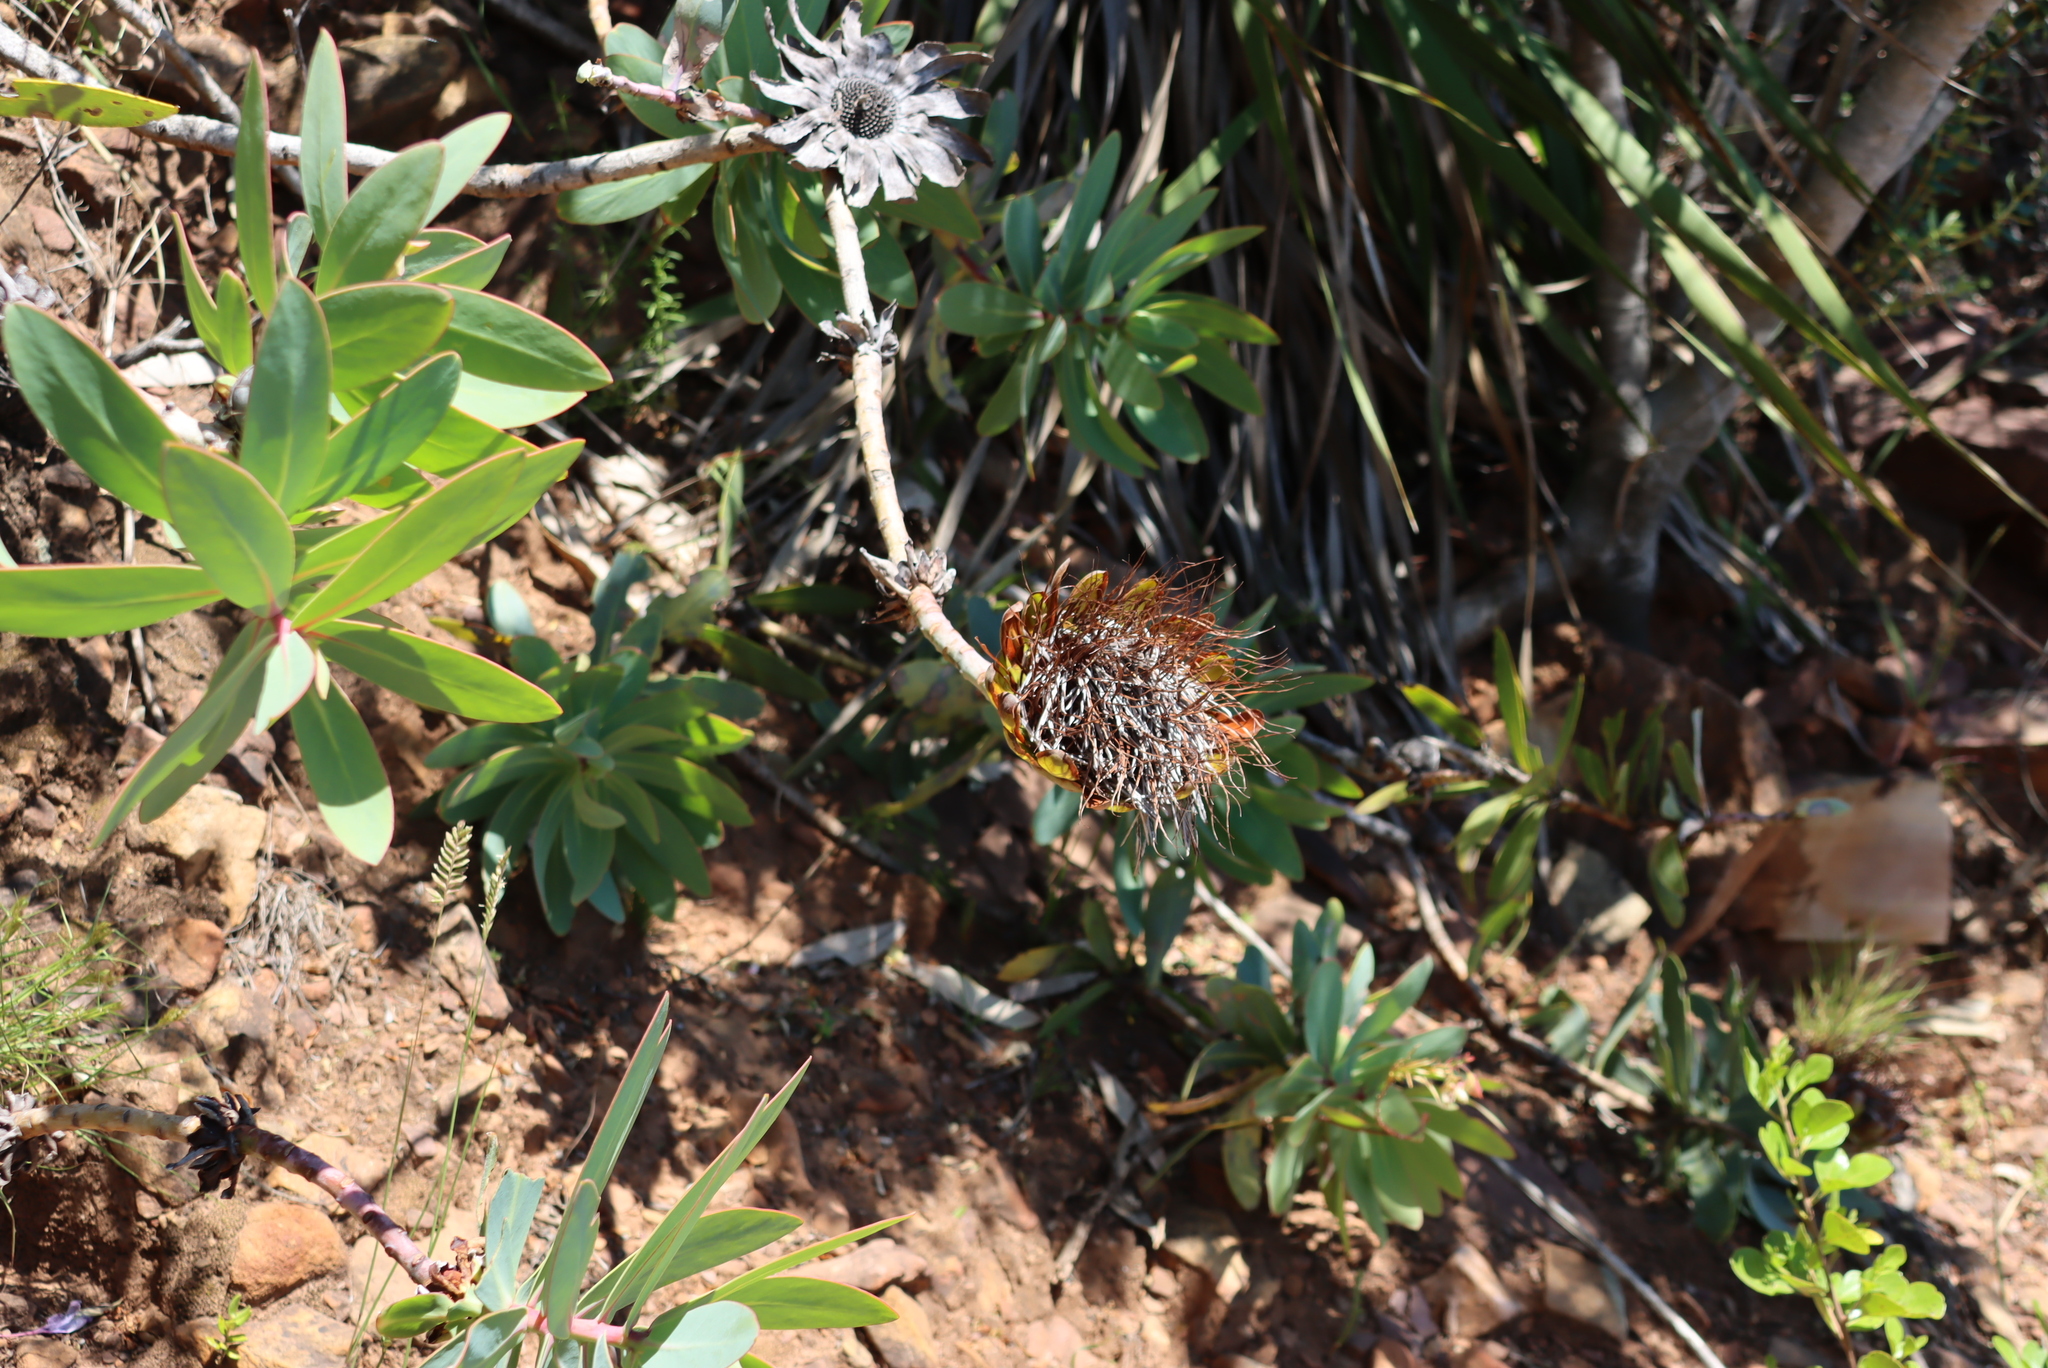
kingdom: Plantae
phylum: Tracheophyta
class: Magnoliopsida
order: Proteales
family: Proteaceae
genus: Protea
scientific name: Protea nitida
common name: Tree protea
